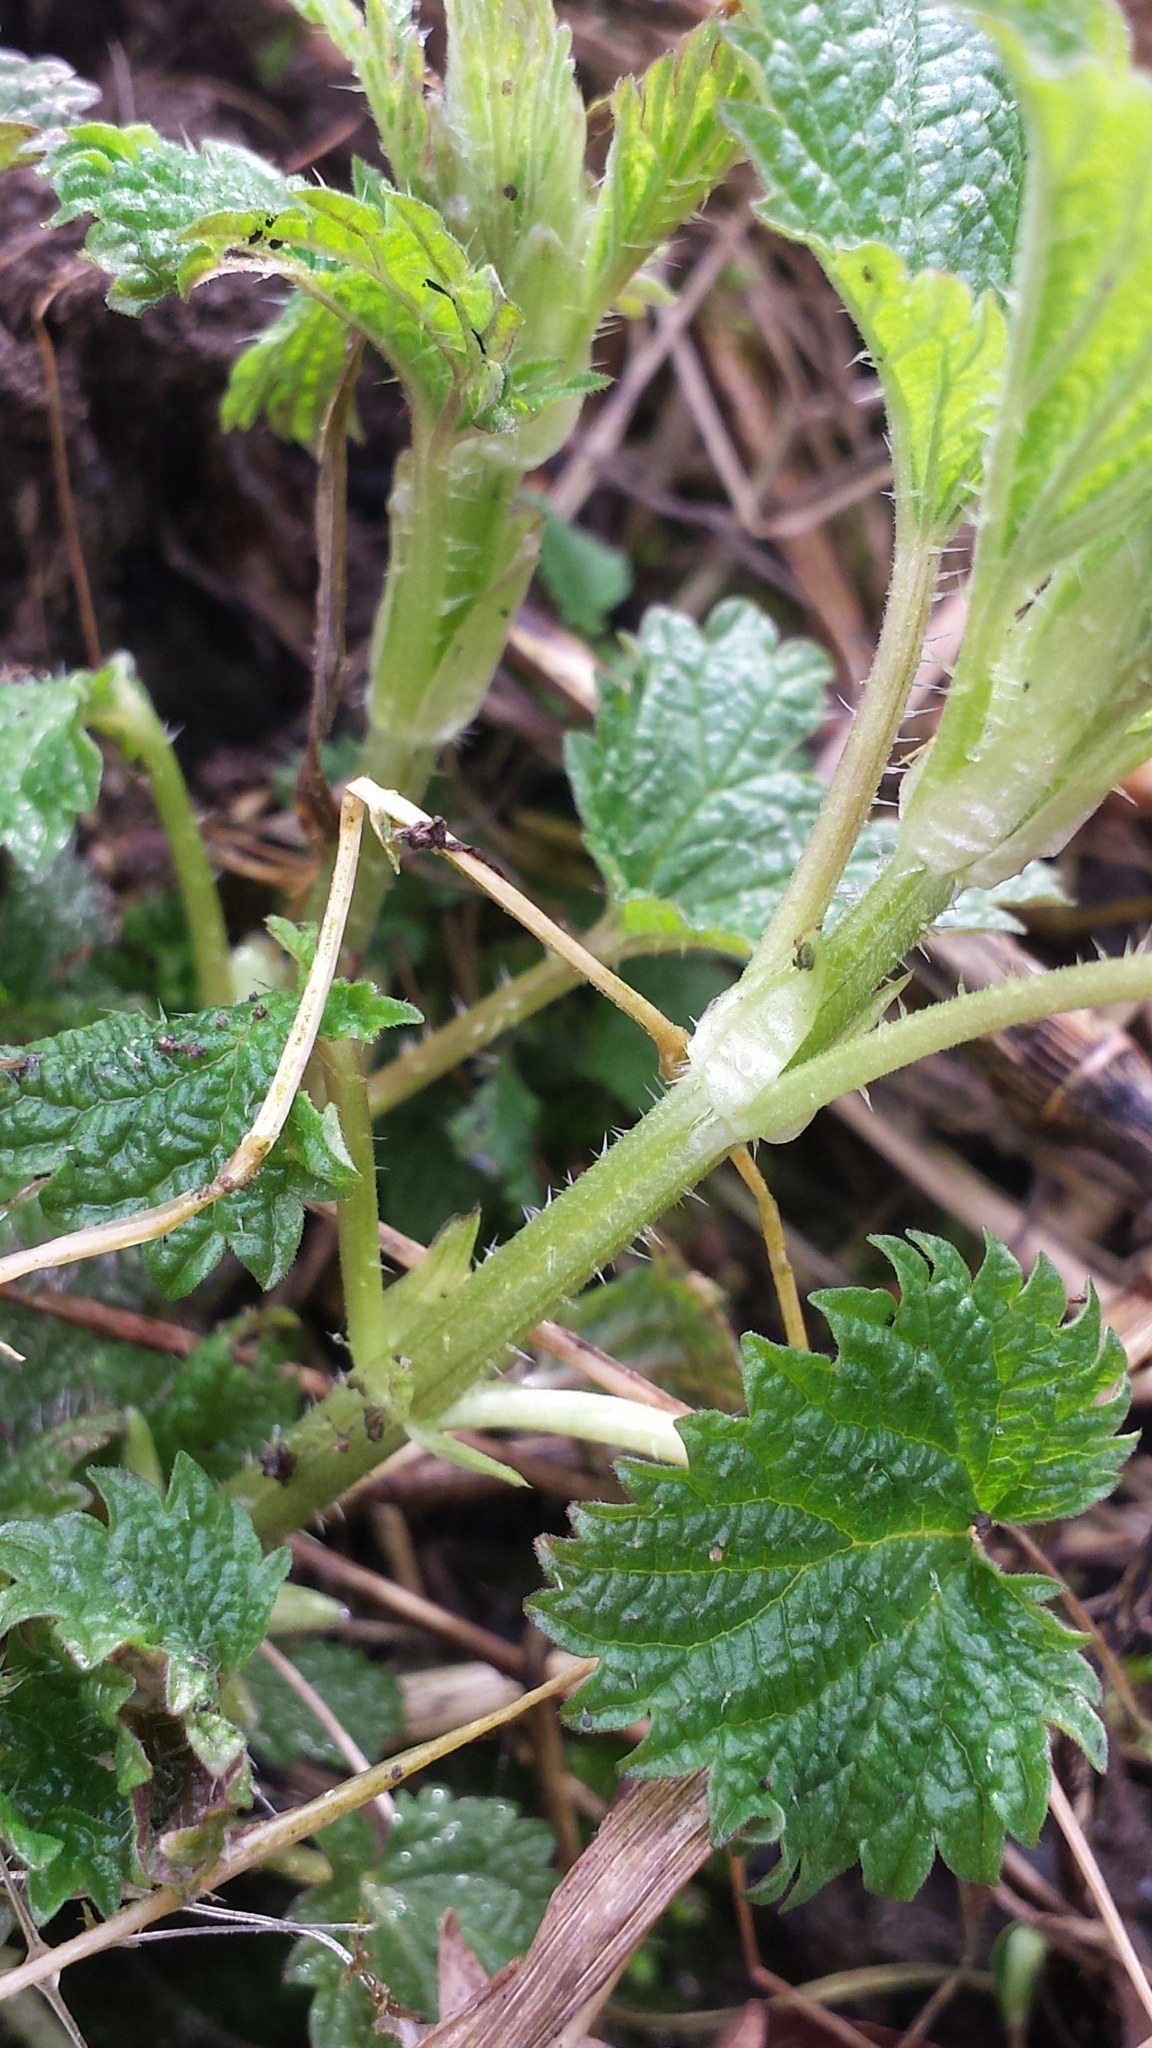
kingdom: Plantae
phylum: Tracheophyta
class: Magnoliopsida
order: Rosales
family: Urticaceae
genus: Urtica
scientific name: Urtica dioica
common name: Common nettle
